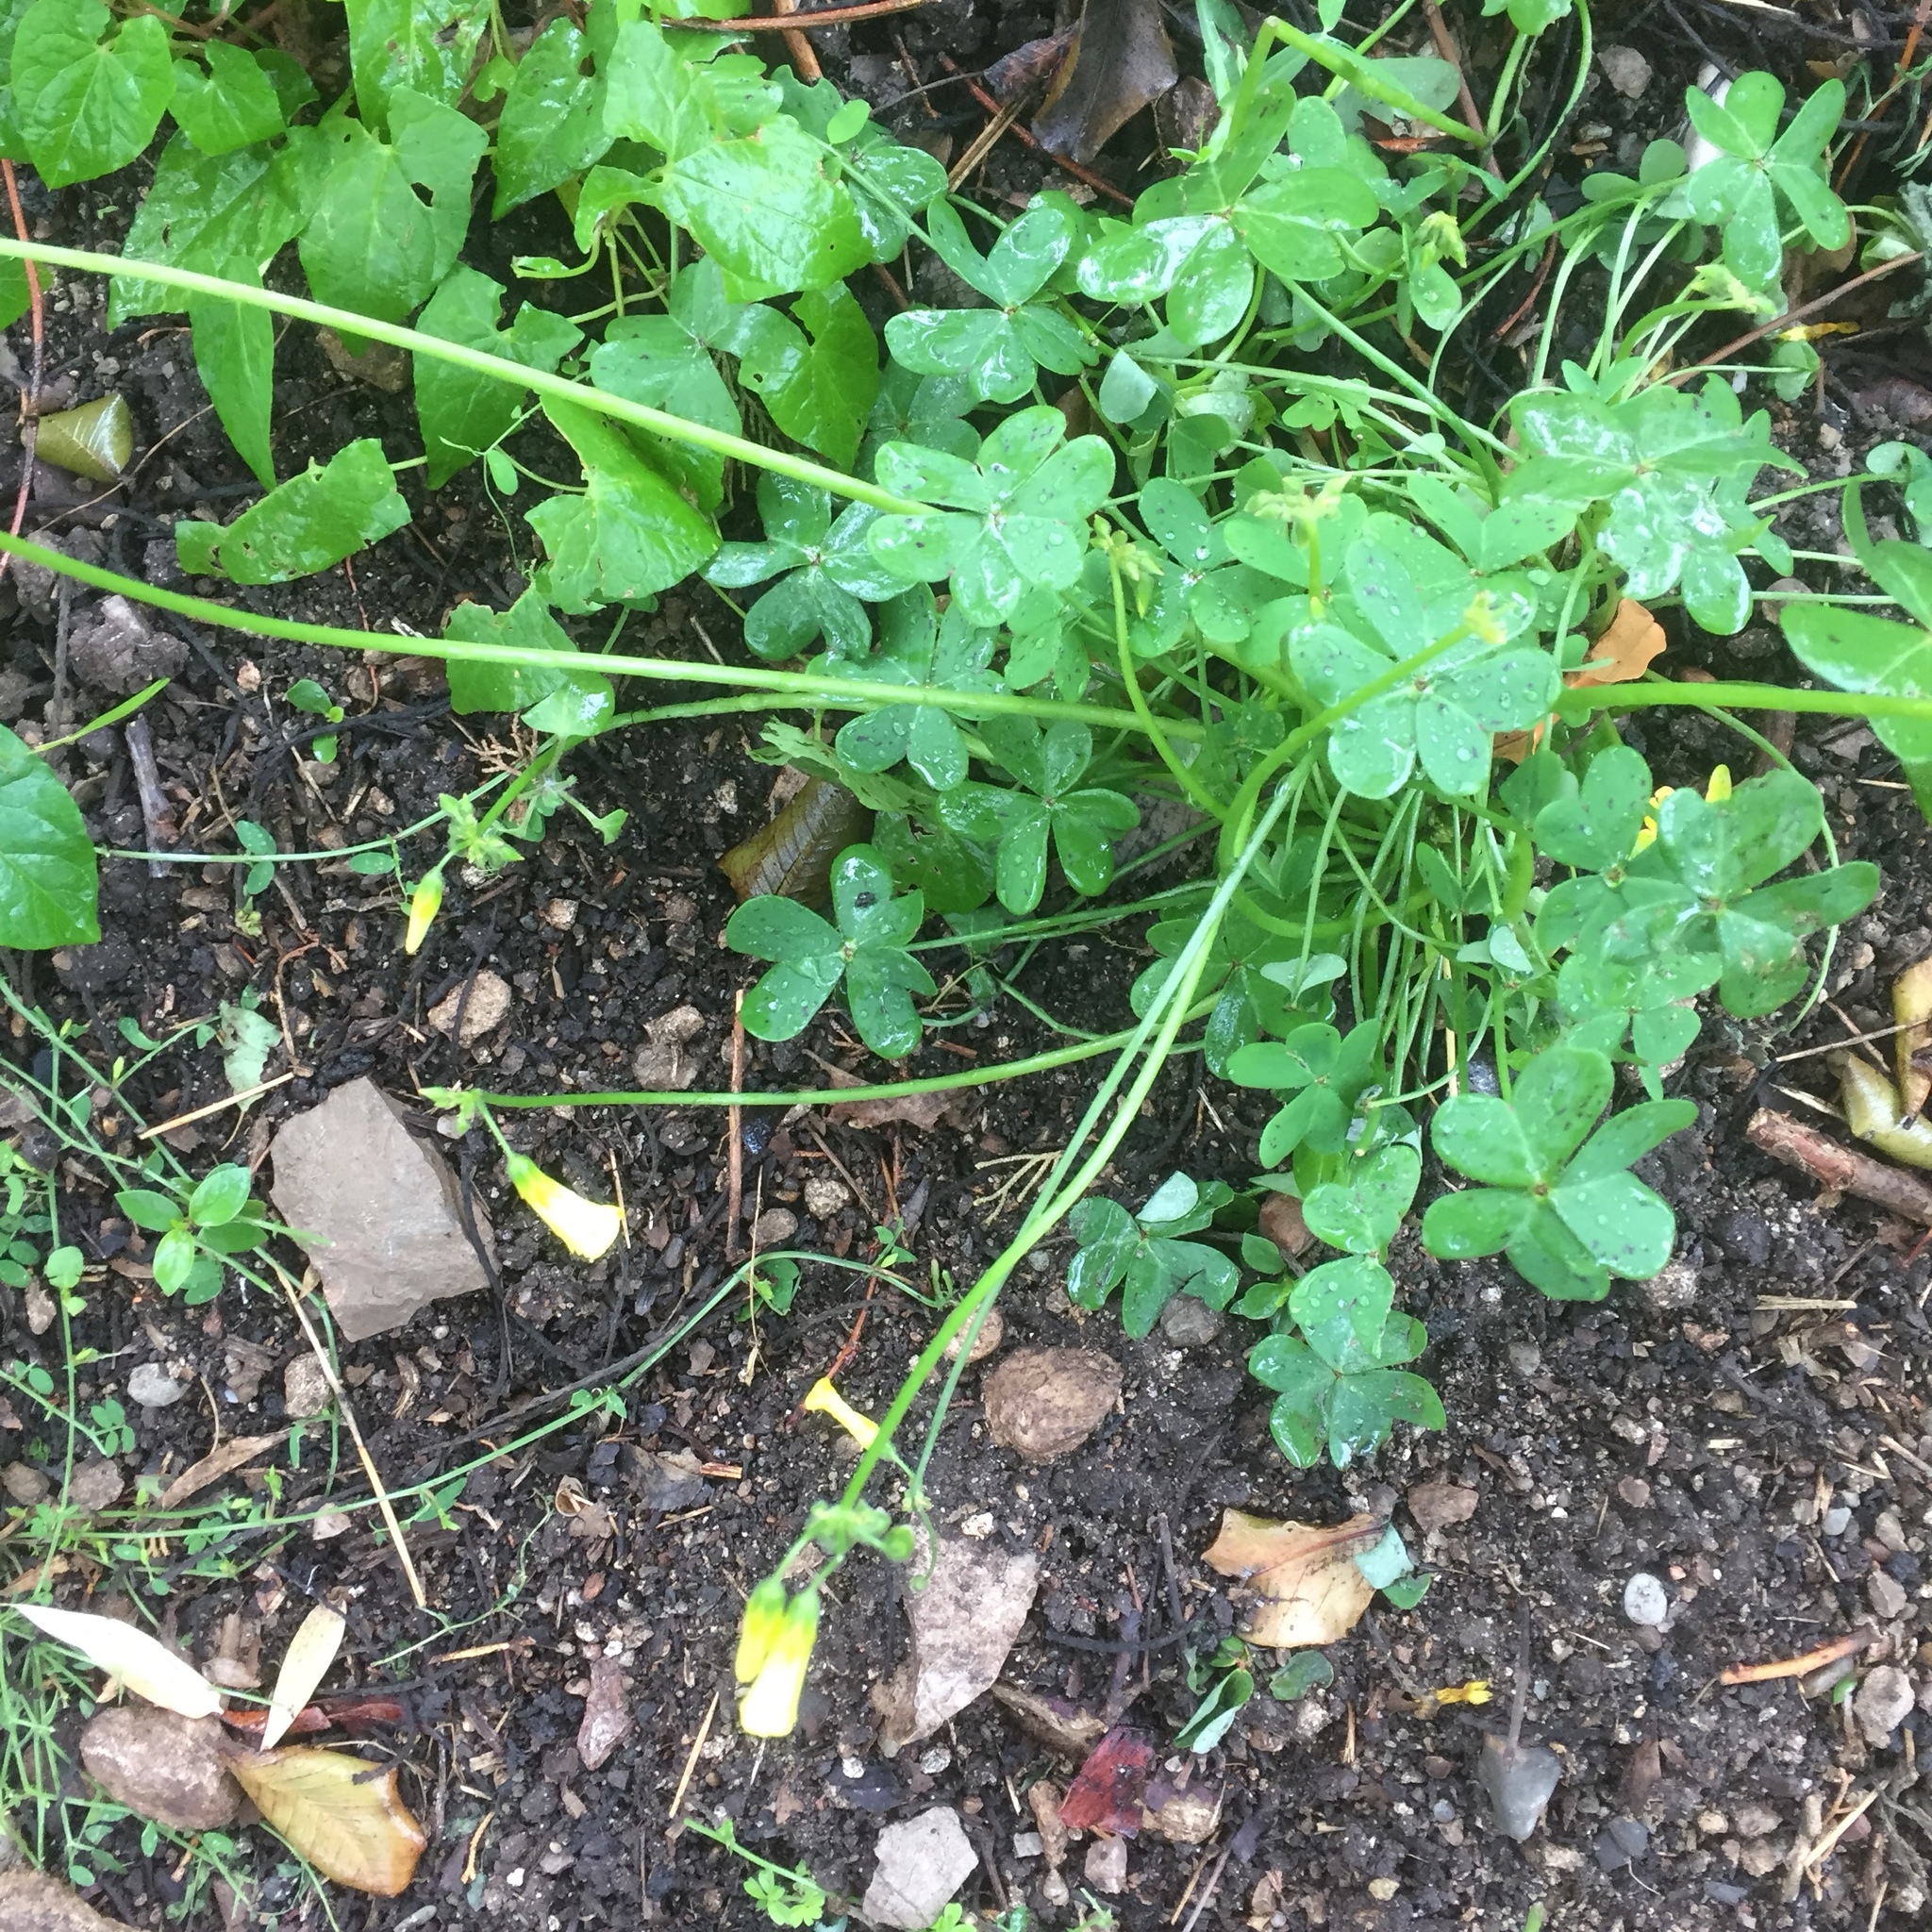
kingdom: Plantae
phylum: Tracheophyta
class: Magnoliopsida
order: Oxalidales
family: Oxalidaceae
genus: Oxalis
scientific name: Oxalis pes-caprae
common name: Bermuda-buttercup
